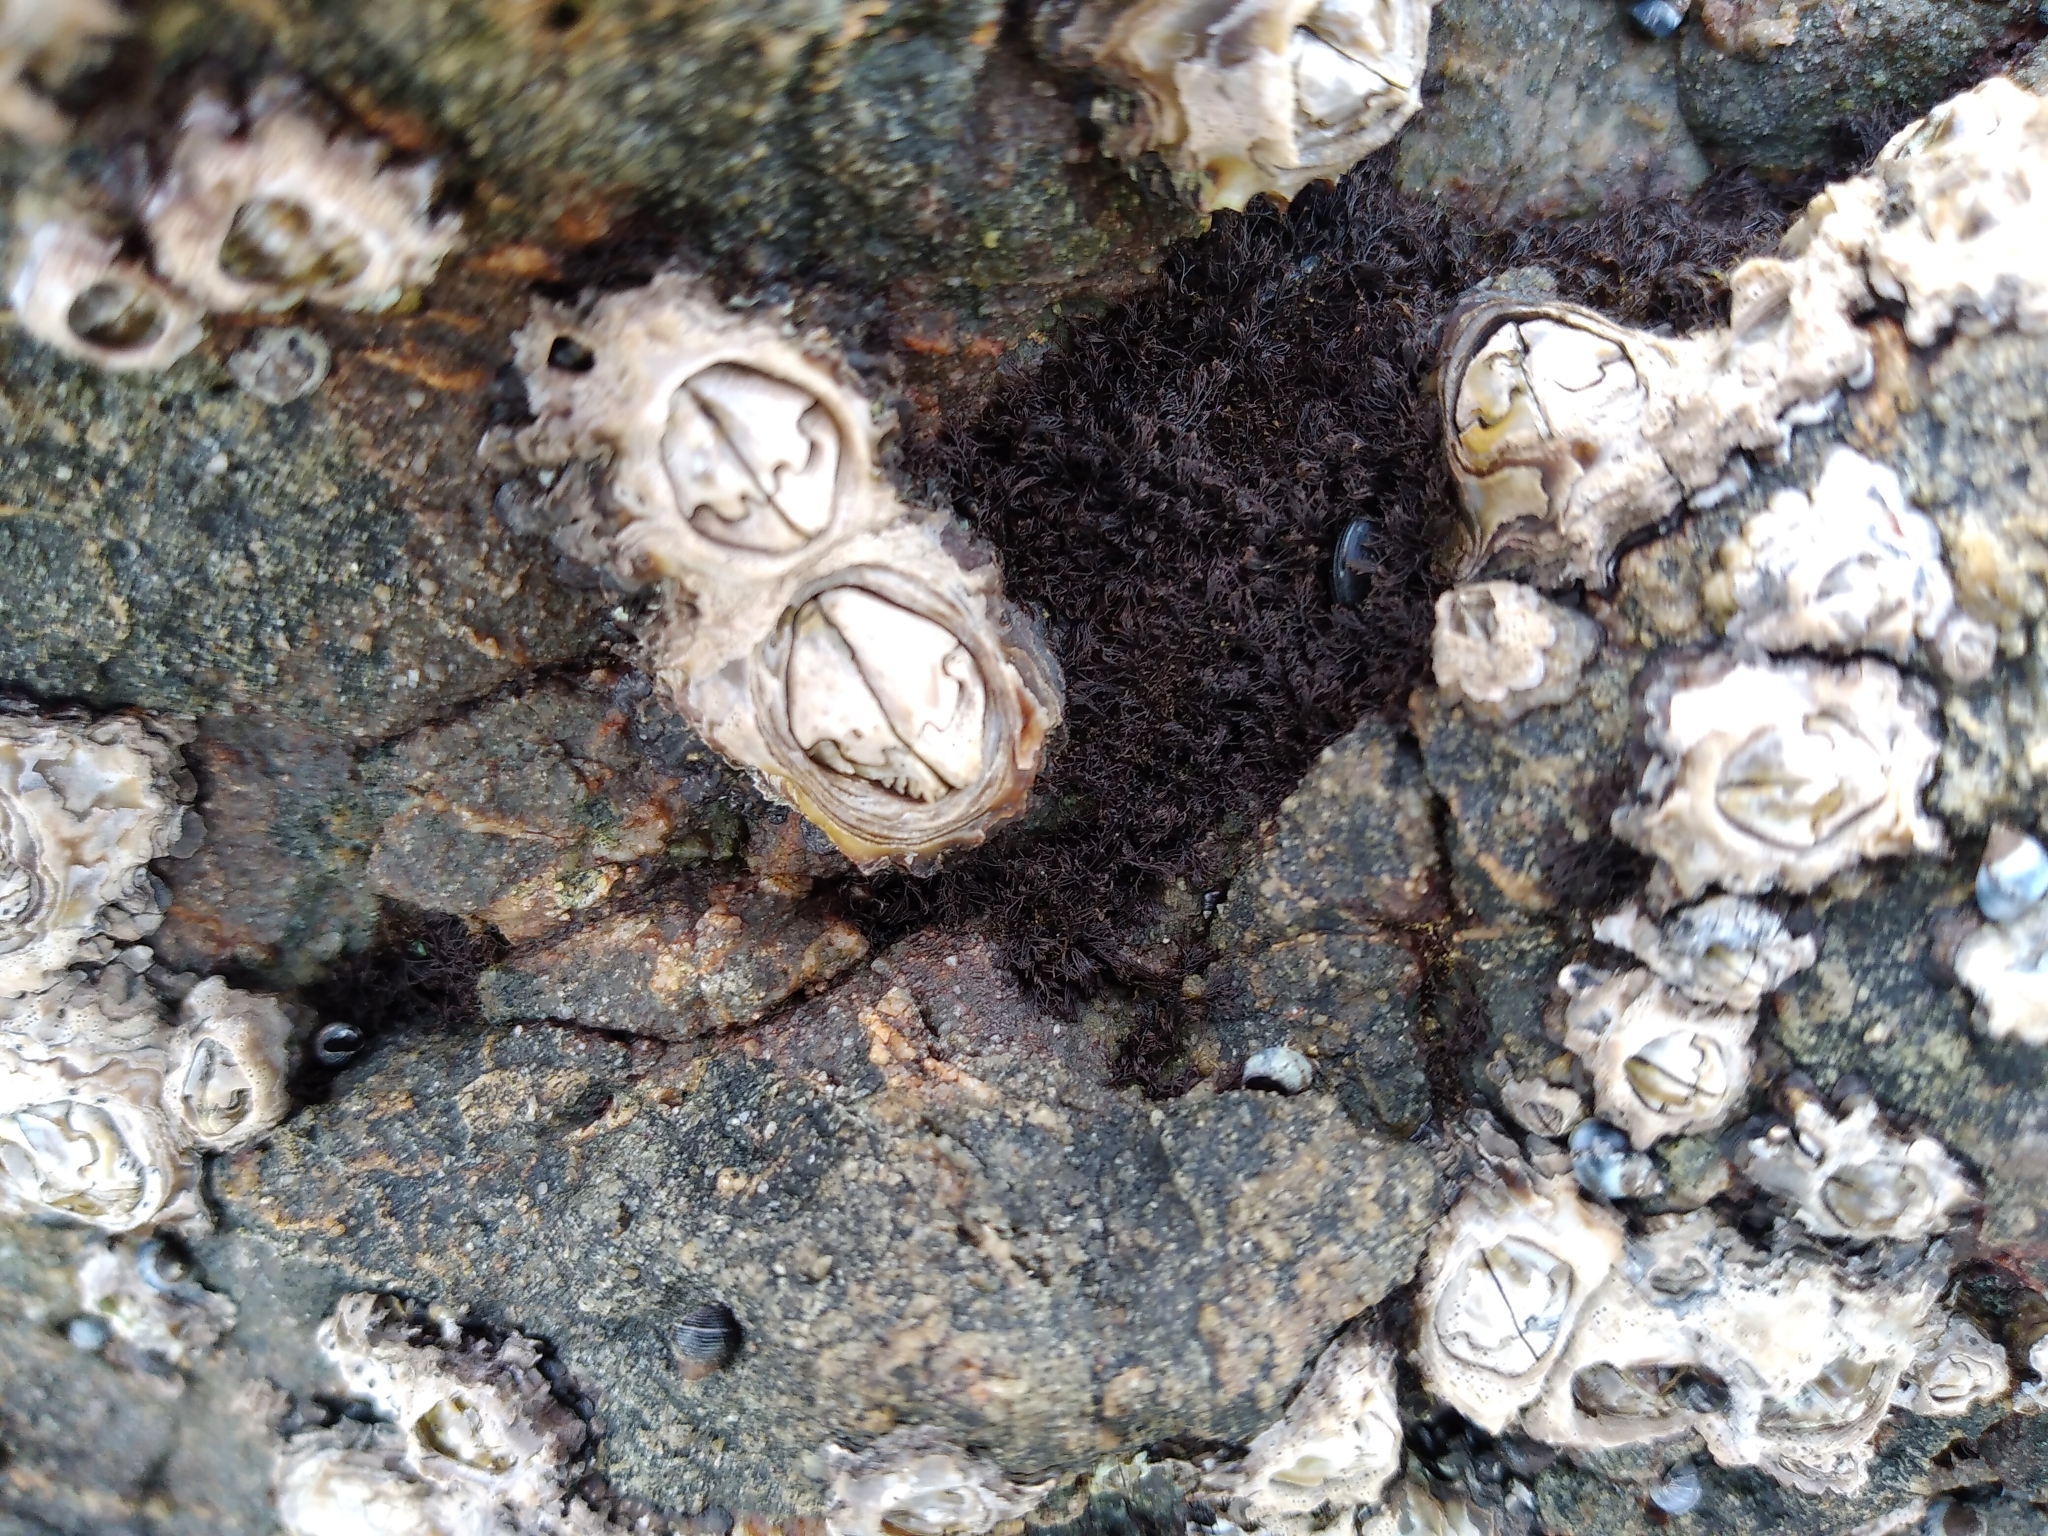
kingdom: Animalia
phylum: Arthropoda
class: Maxillopoda
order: Sessilia
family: Chthamalidae
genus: Chamaesipho
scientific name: Chamaesipho brunnea
